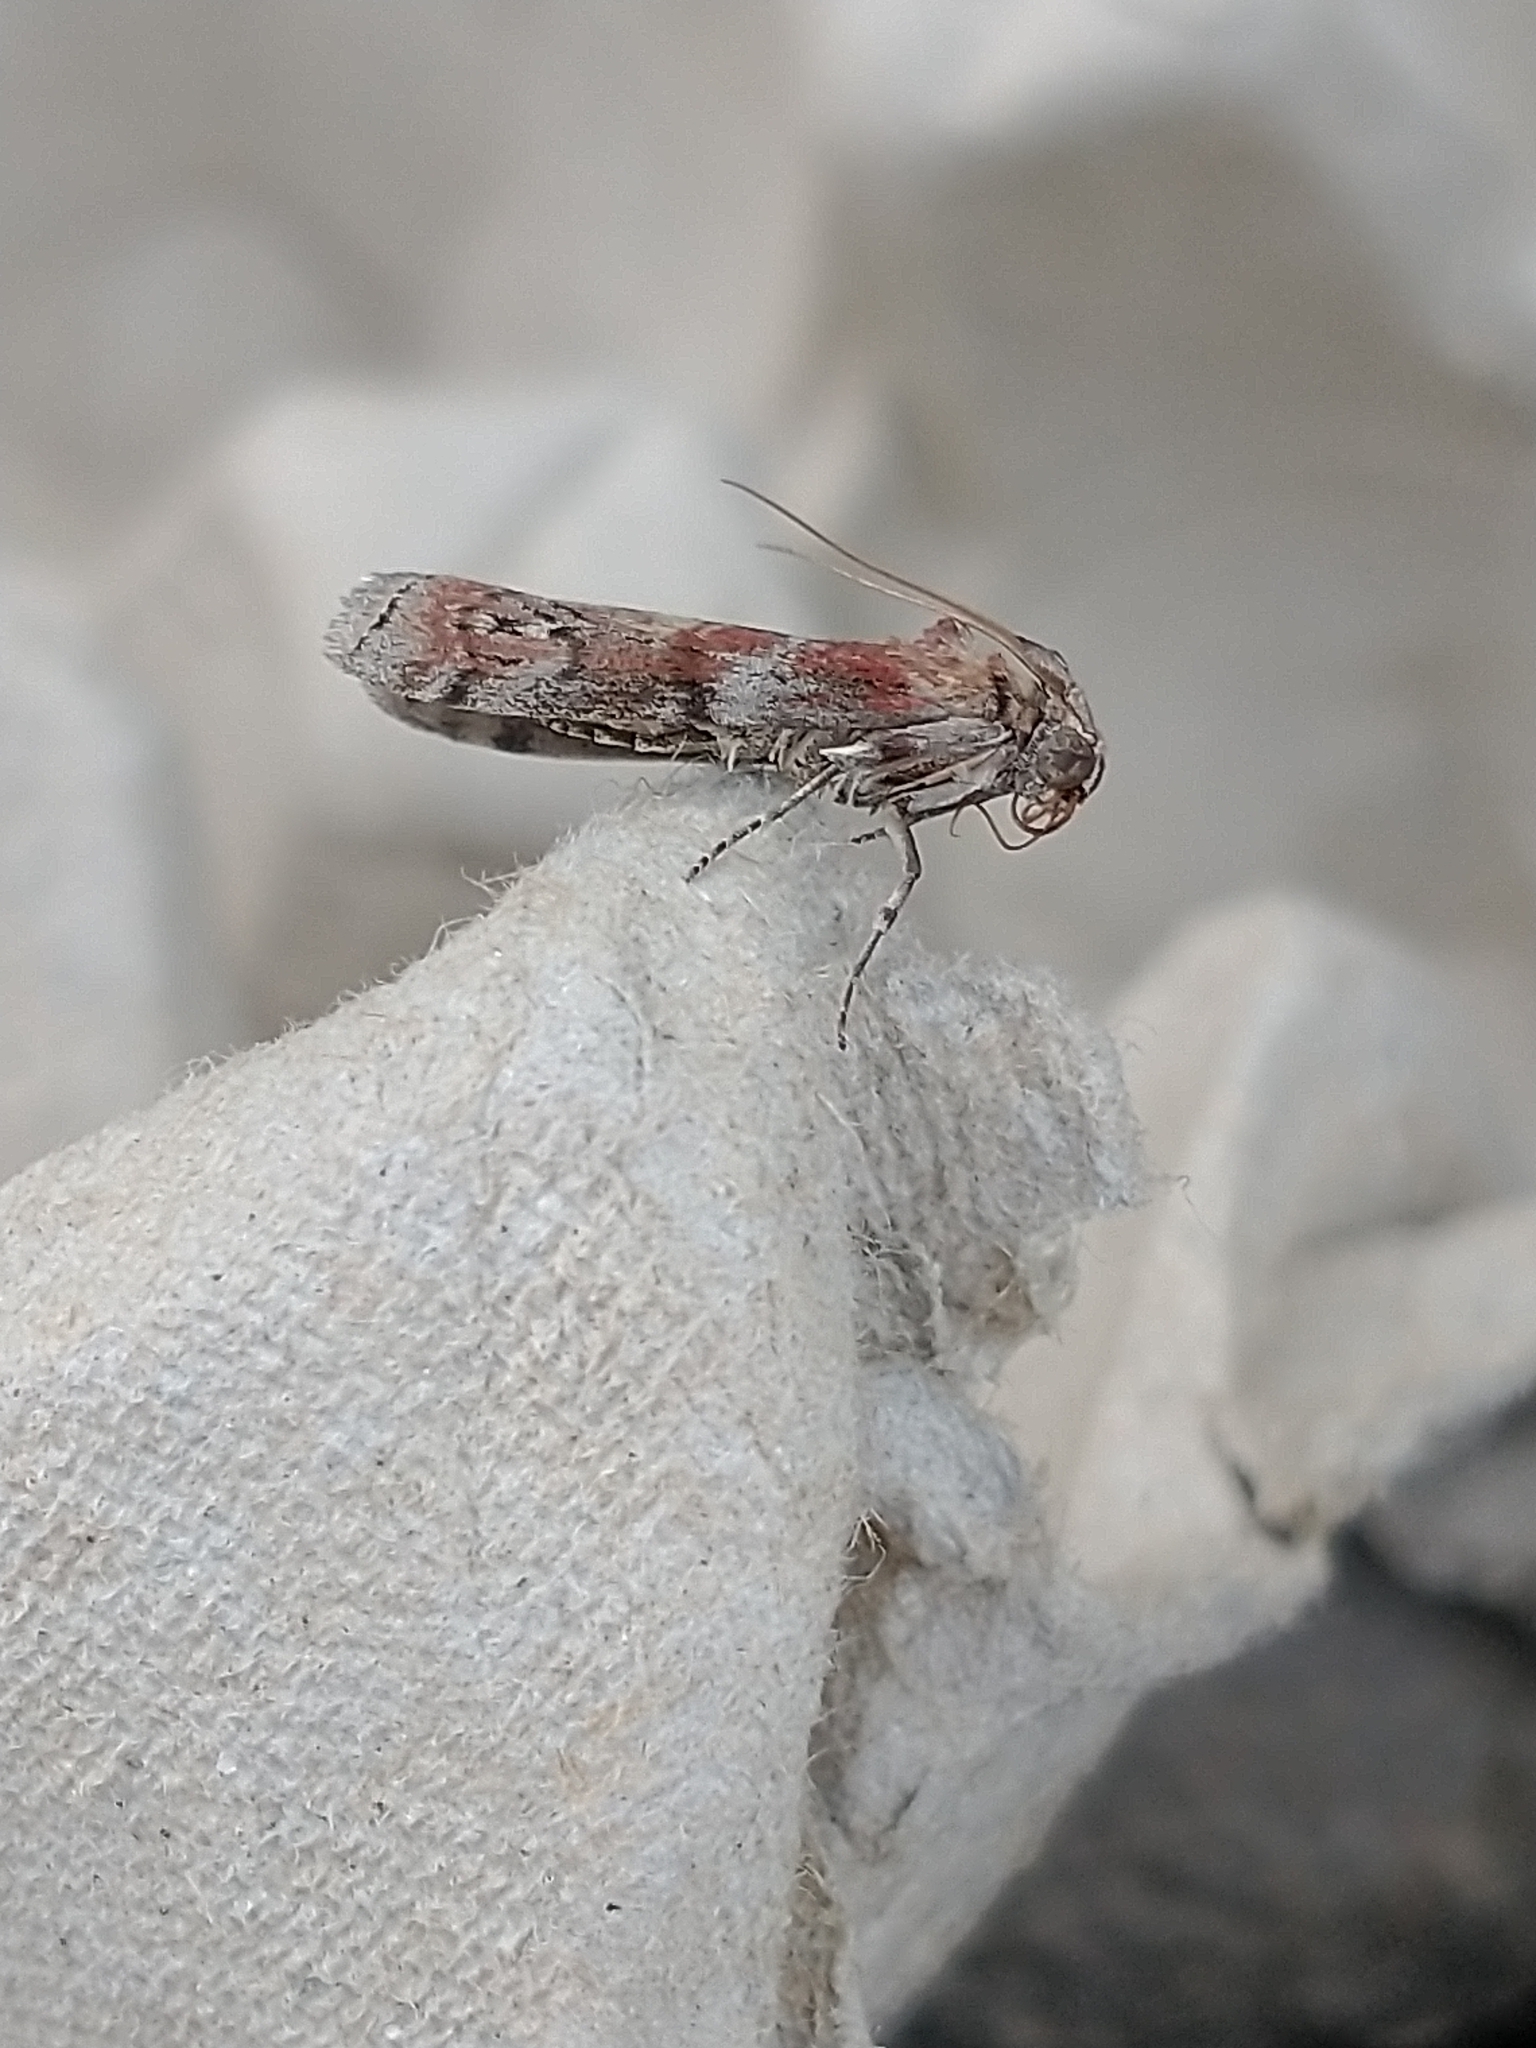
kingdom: Animalia
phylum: Arthropoda
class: Insecta
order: Lepidoptera
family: Pyralidae
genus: Phycita
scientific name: Phycita roborella
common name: Dotted oak knot-horn
